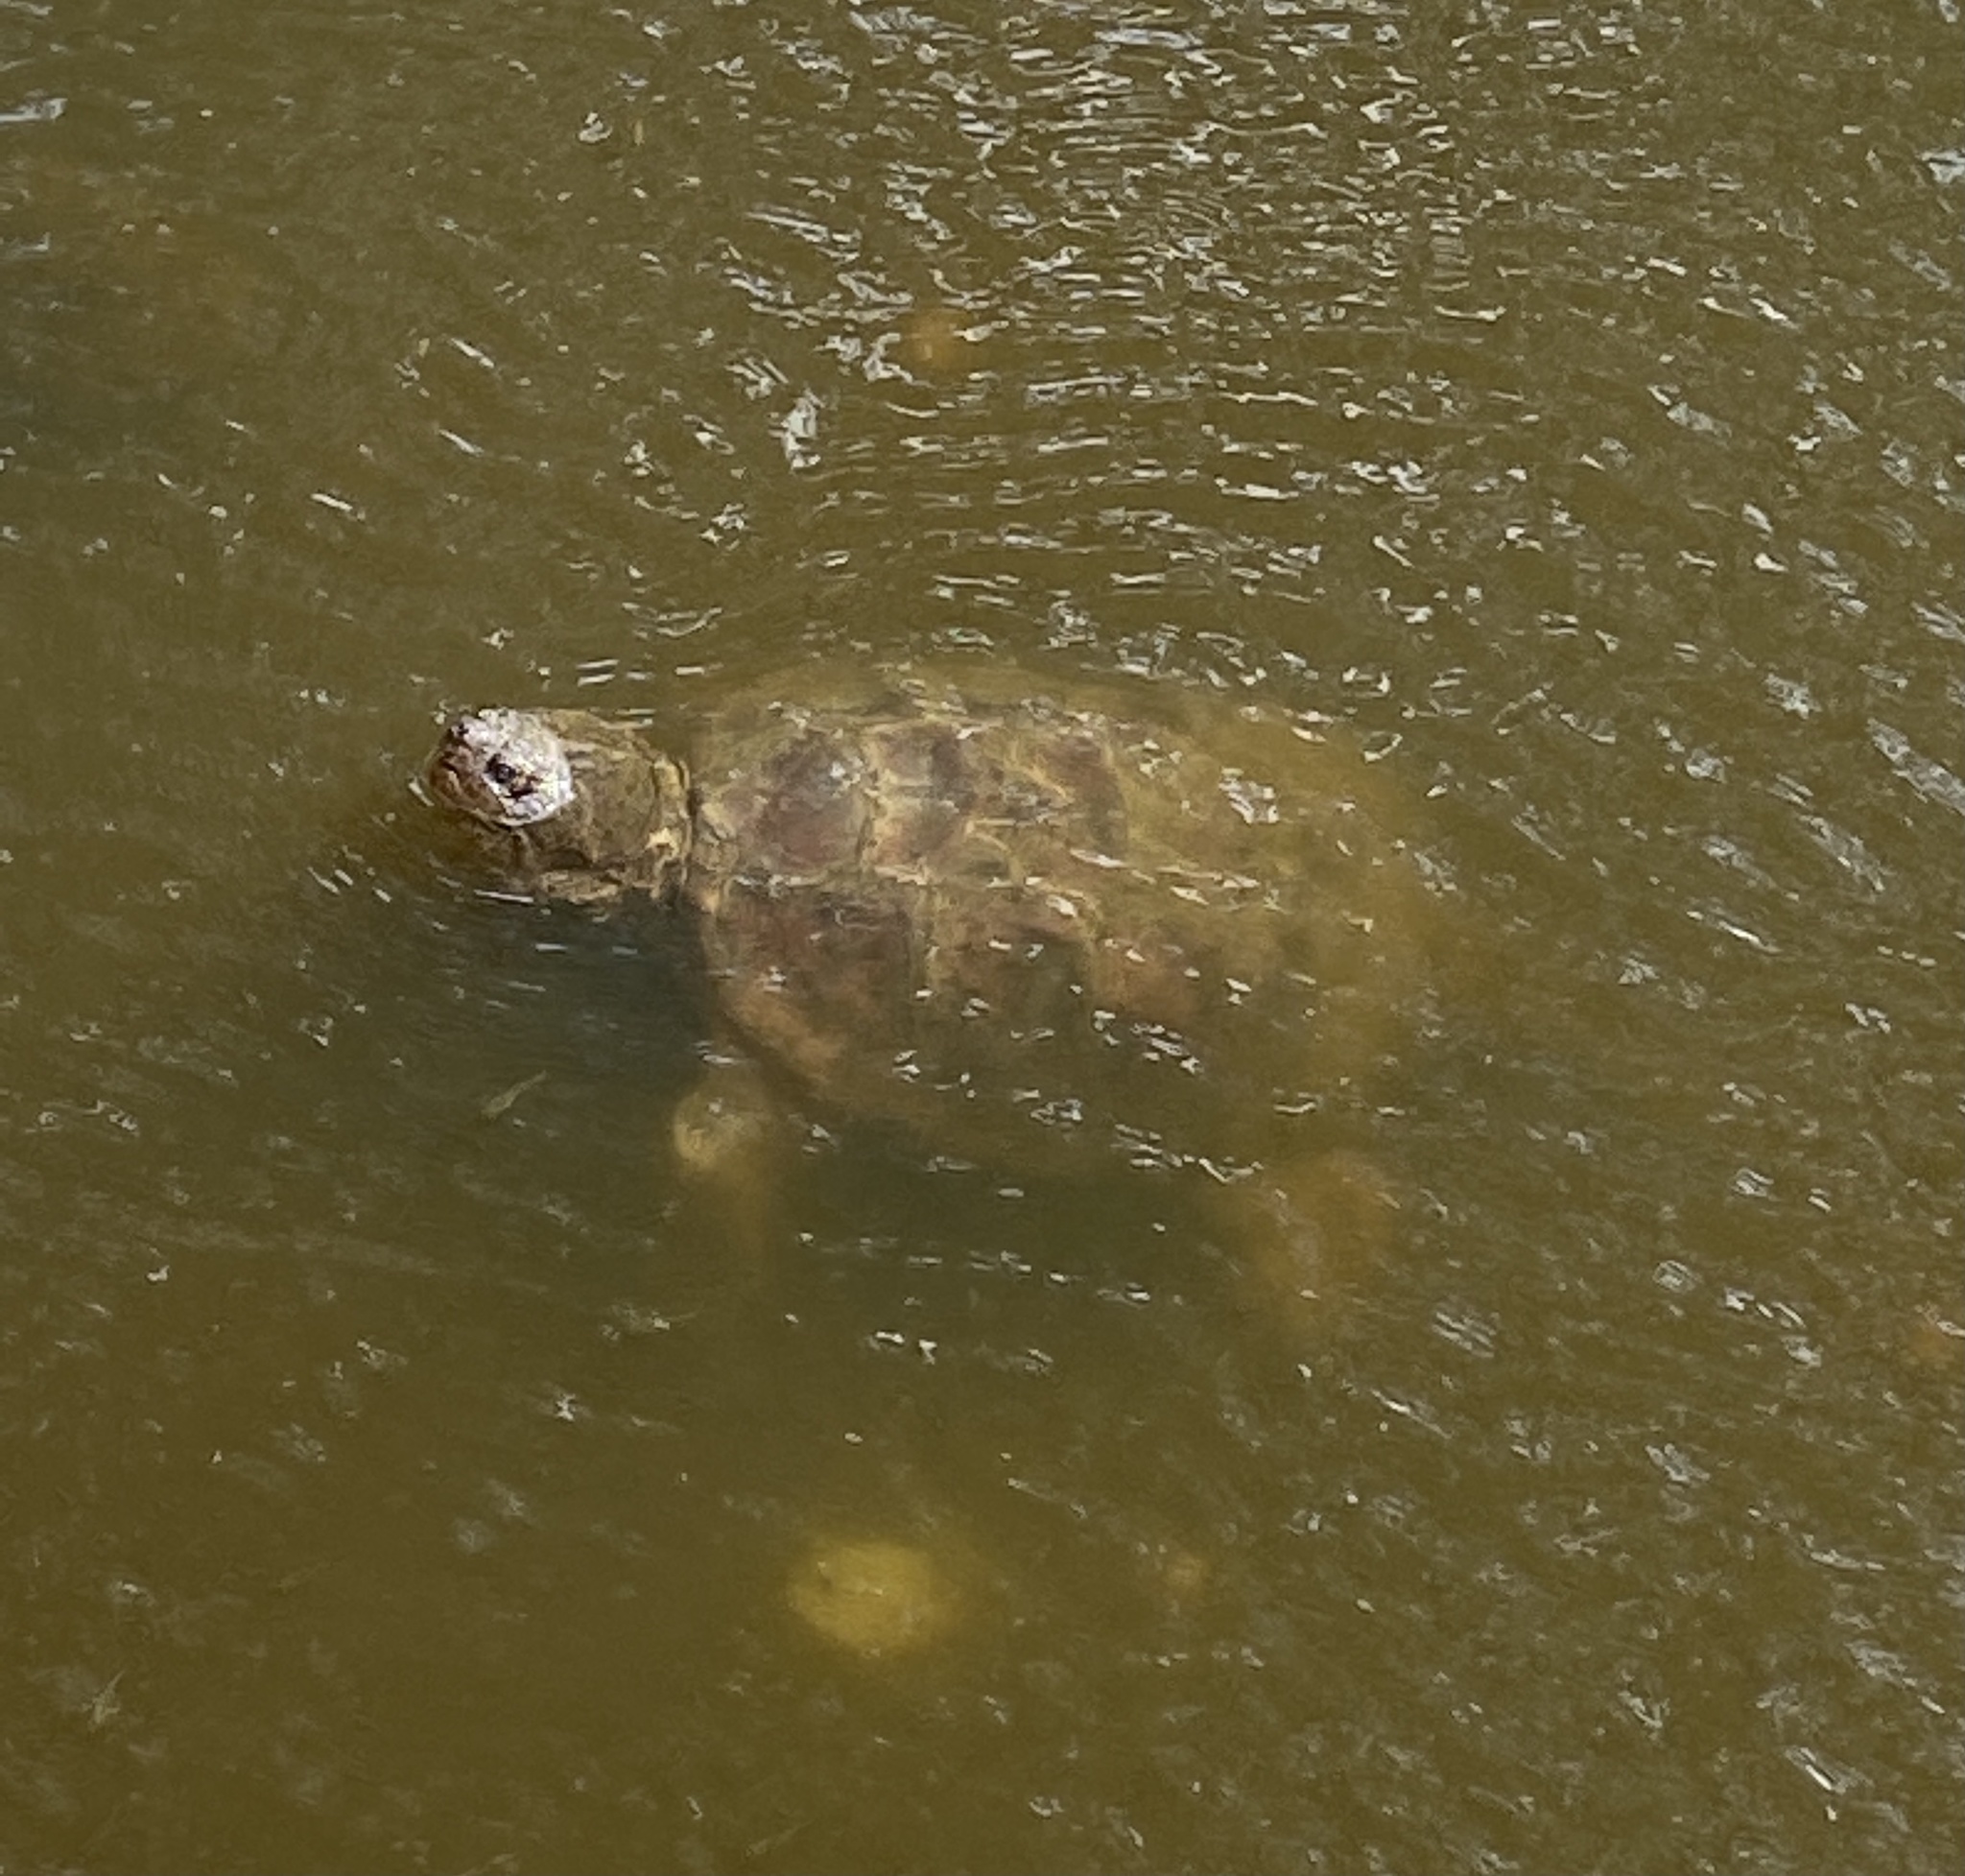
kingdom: Animalia
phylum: Chordata
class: Testudines
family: Chelydridae
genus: Chelydra
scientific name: Chelydra serpentina
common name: Common snapping turtle
